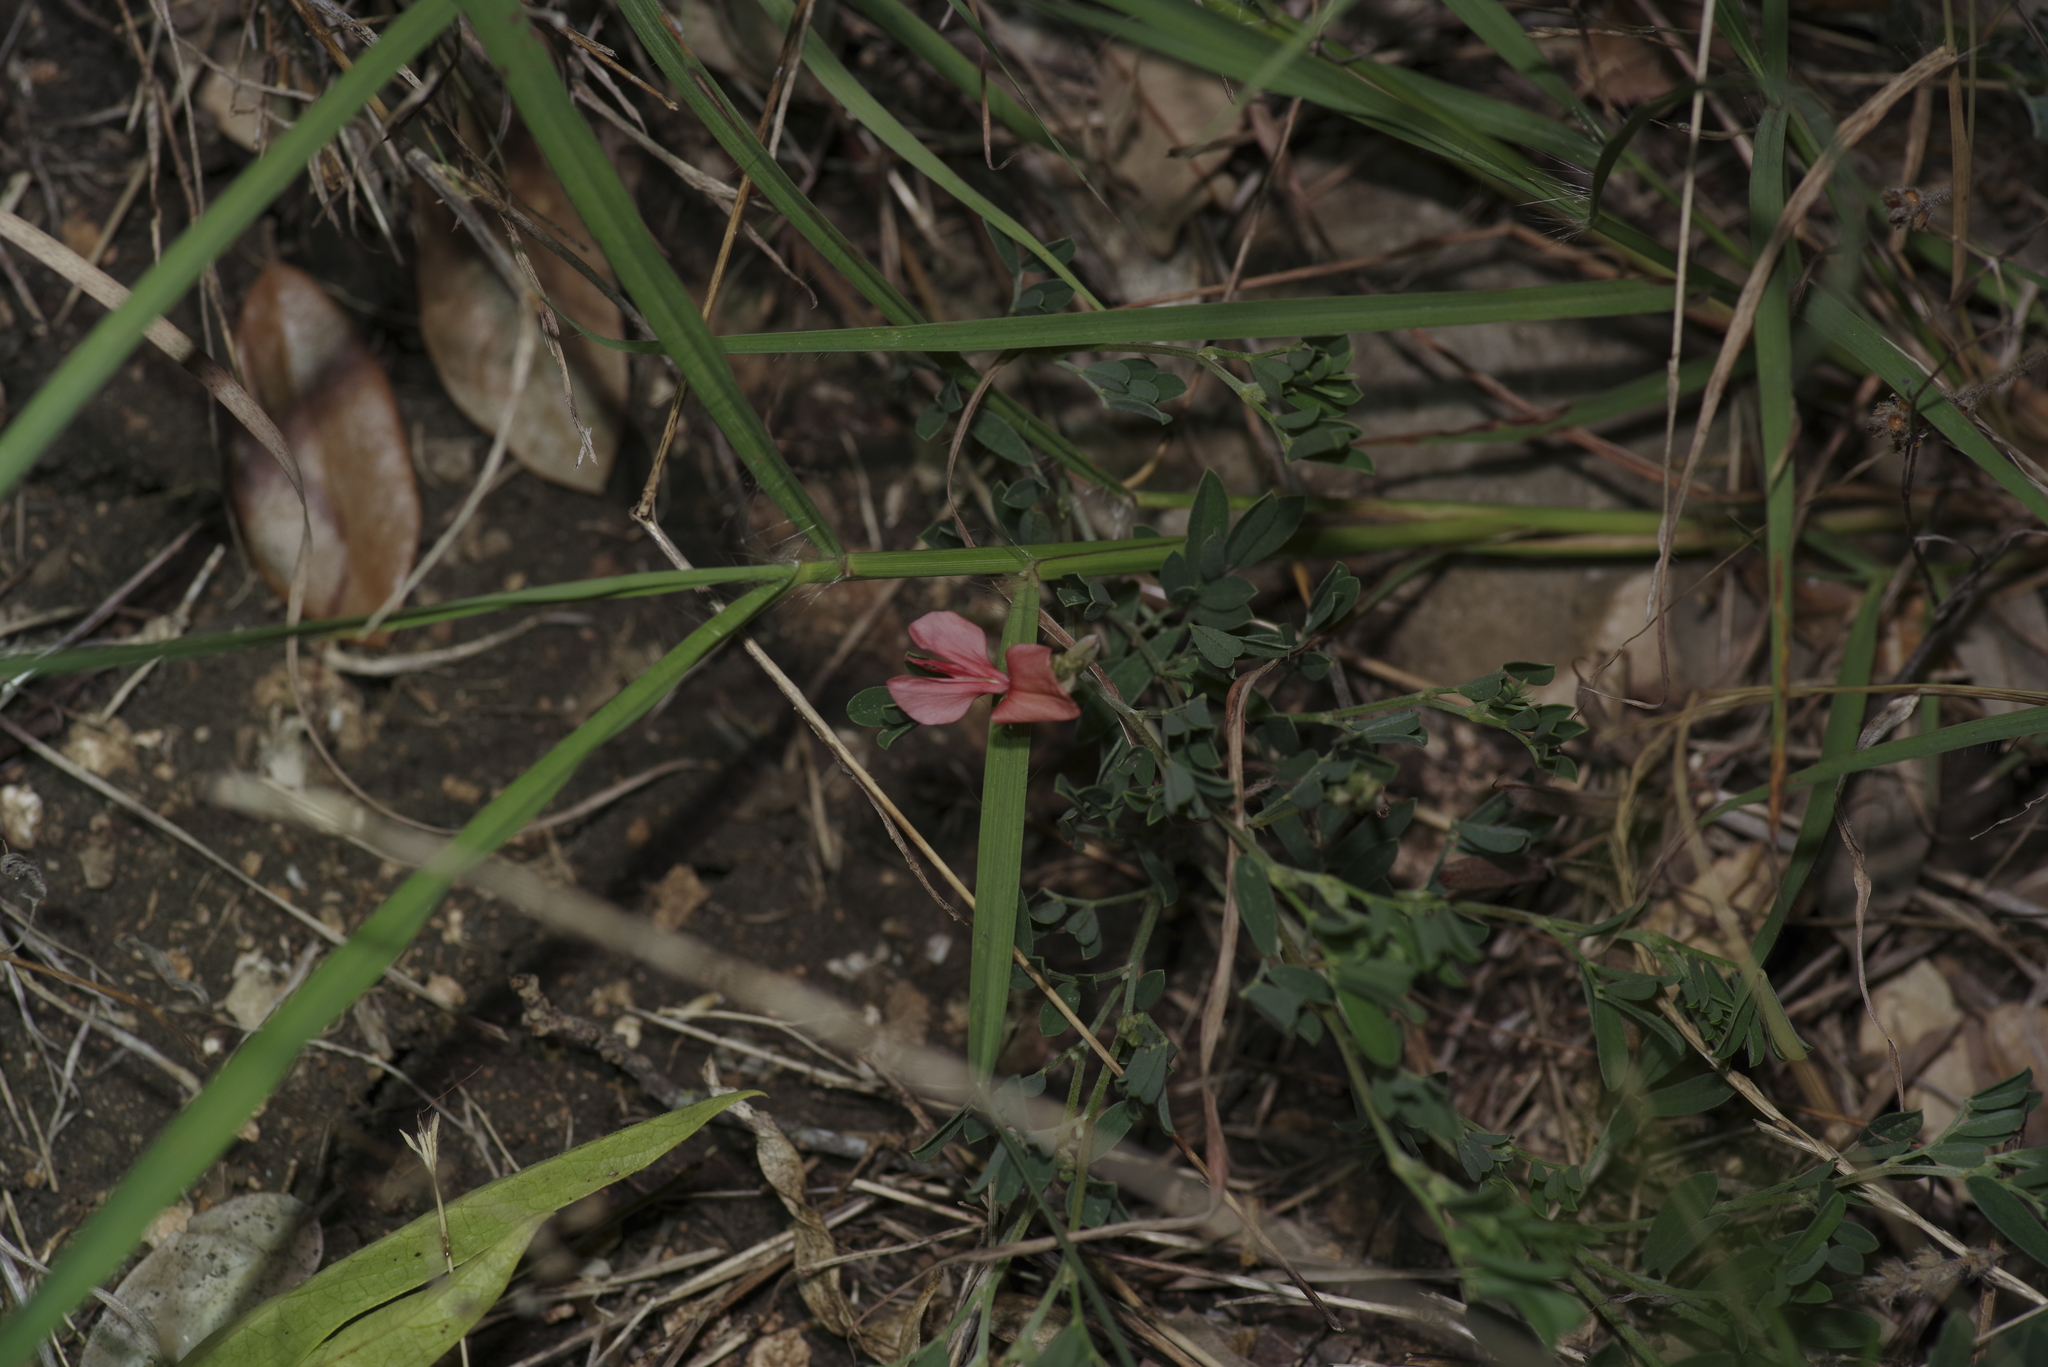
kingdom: Plantae
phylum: Tracheophyta
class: Magnoliopsida
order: Fabales
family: Fabaceae
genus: Indigofera
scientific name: Indigofera miniata
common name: Coast indigo
